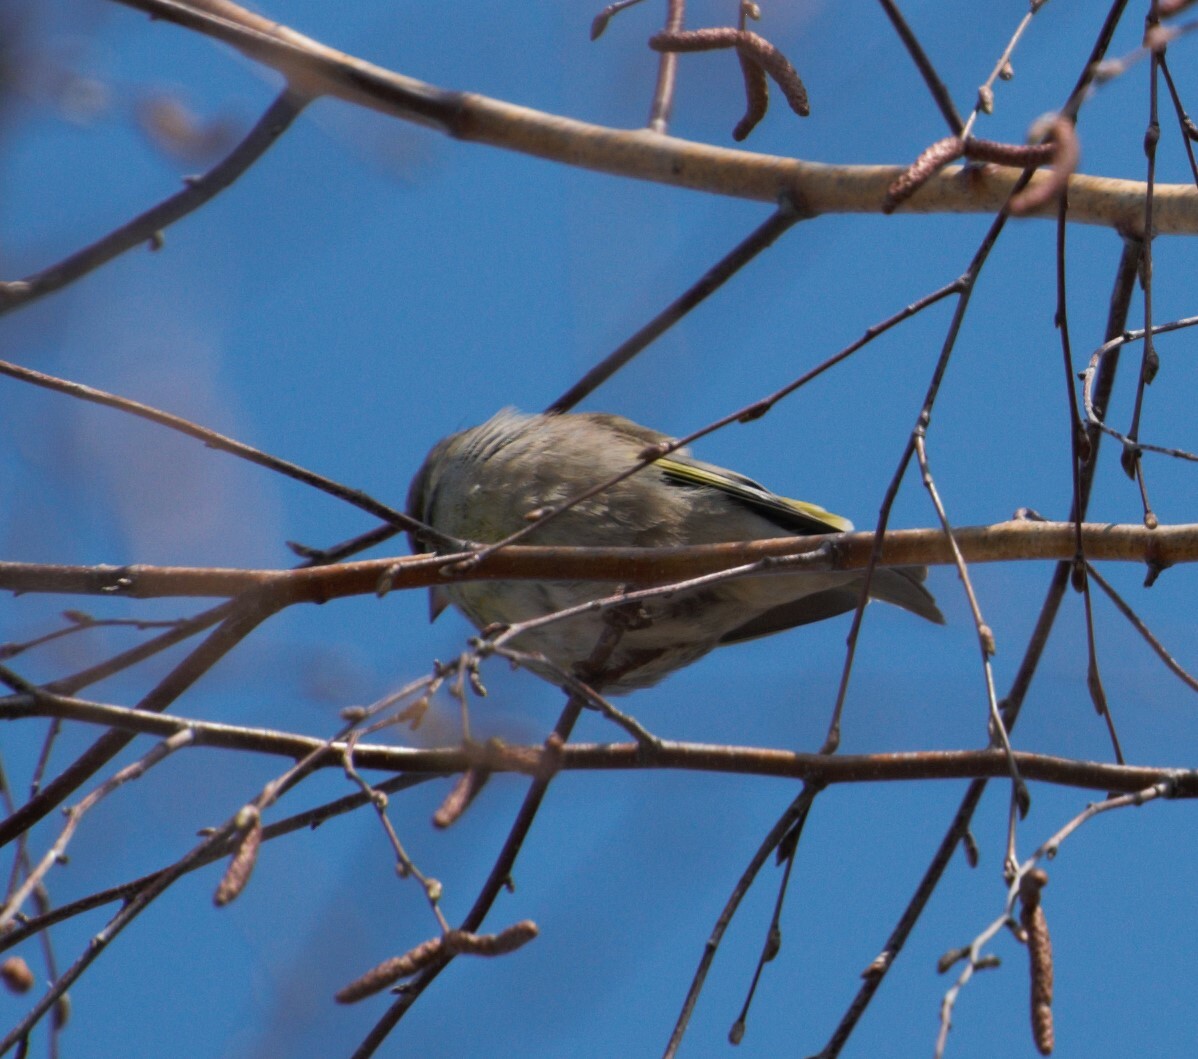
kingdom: Plantae
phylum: Tracheophyta
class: Liliopsida
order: Poales
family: Poaceae
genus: Chloris
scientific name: Chloris chloris
